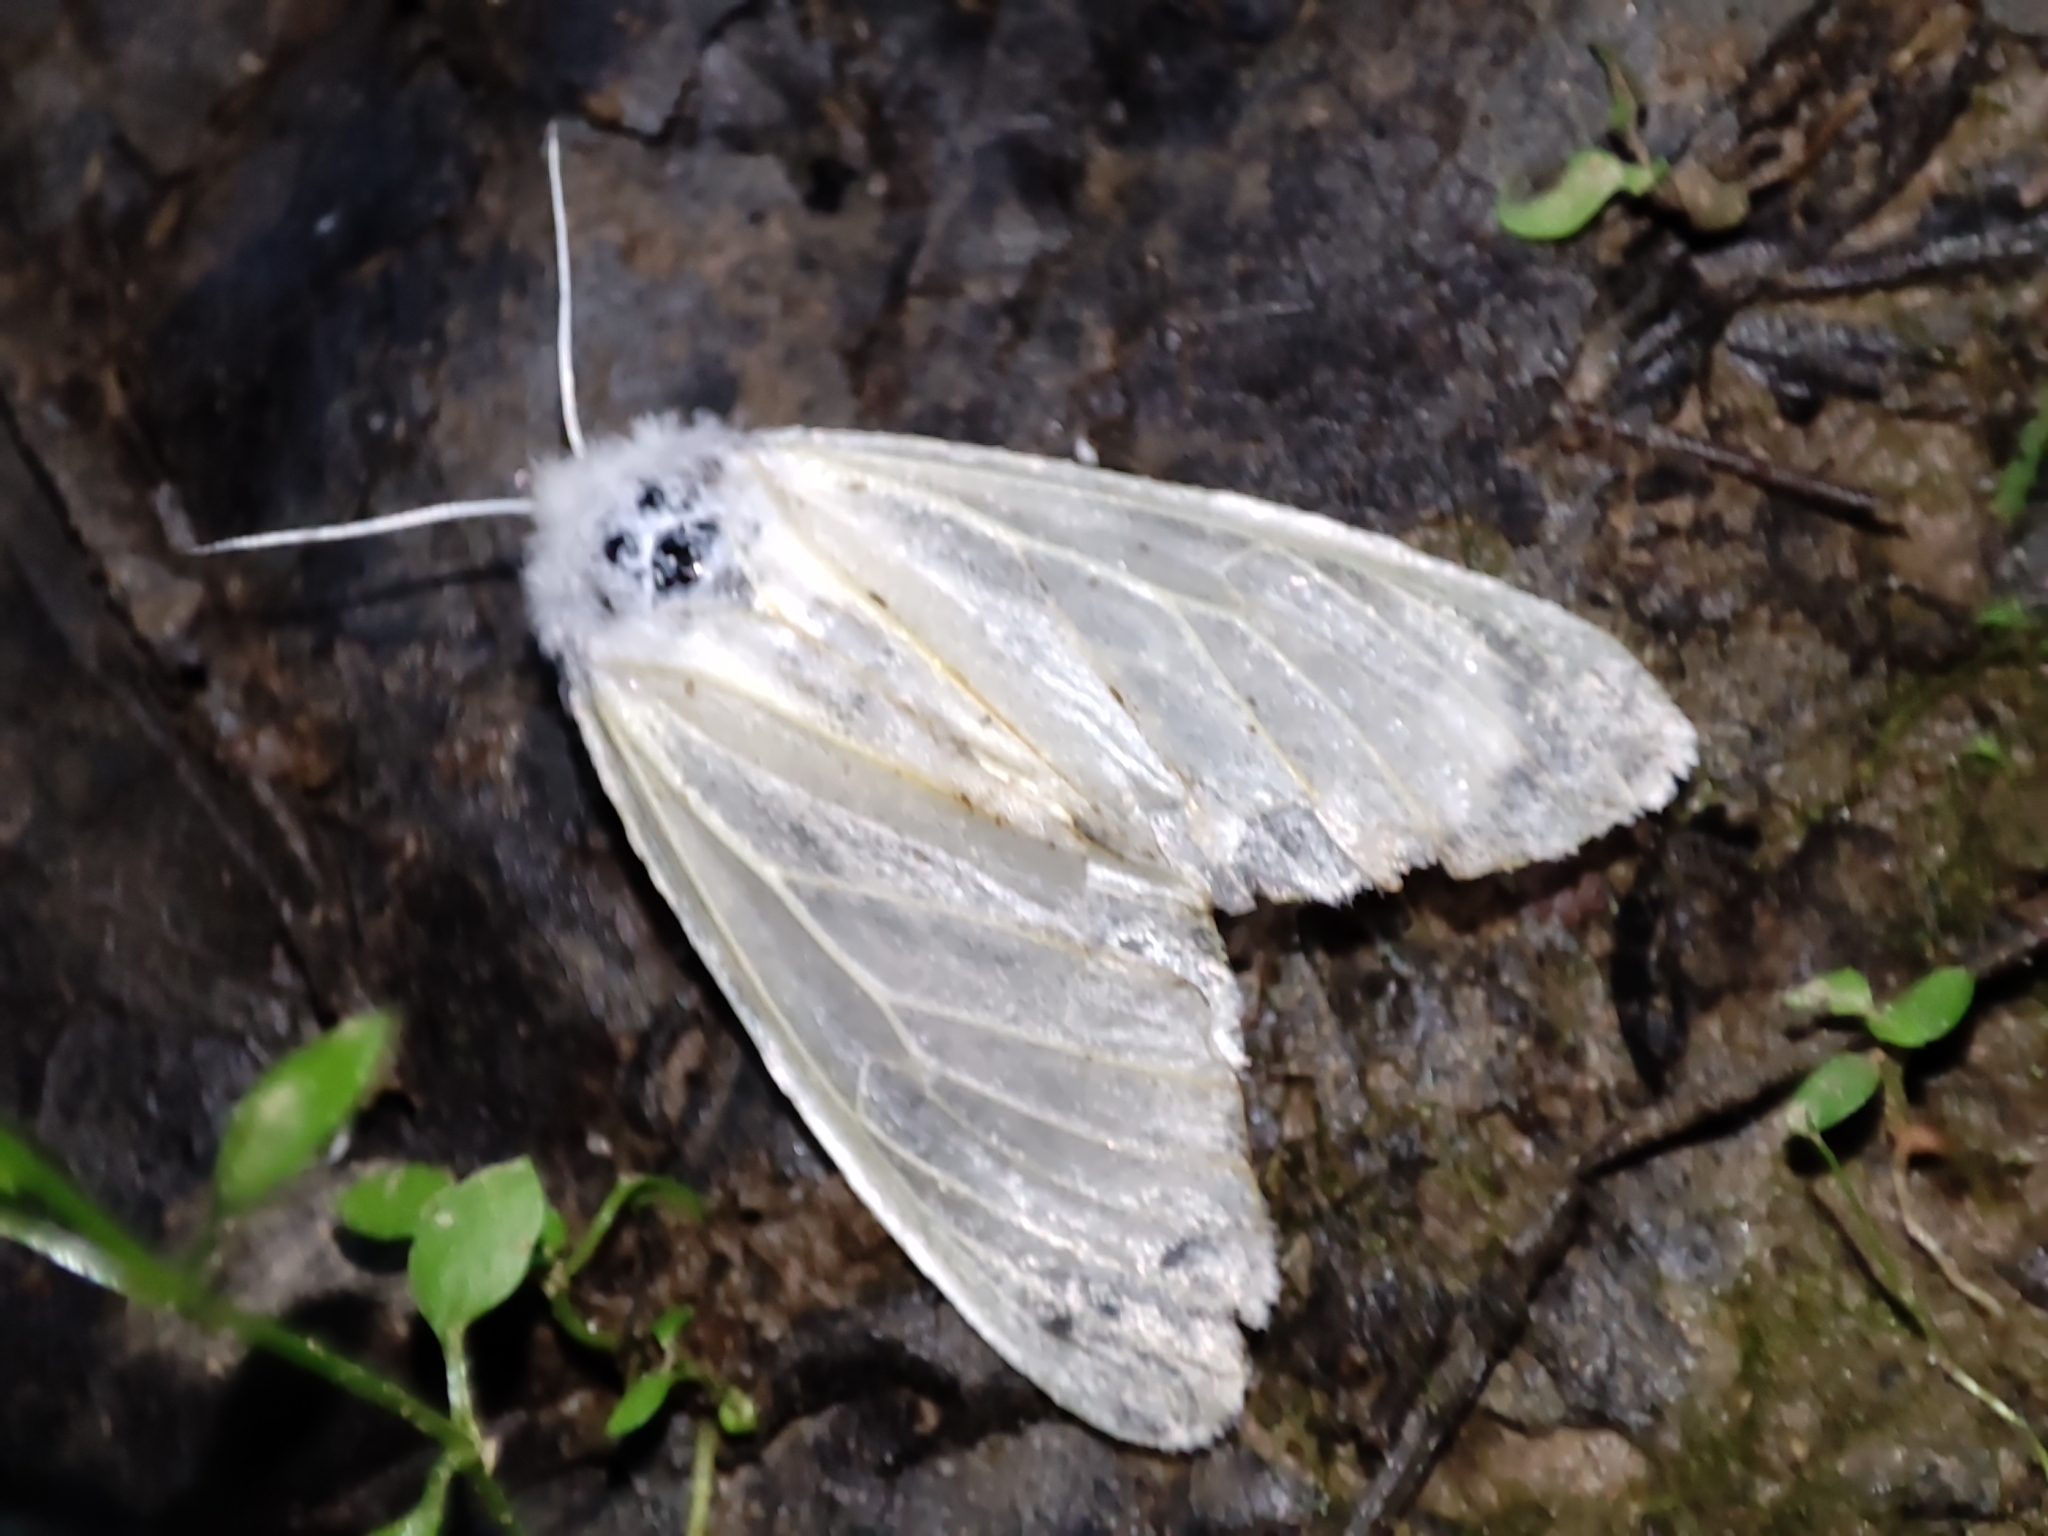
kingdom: Animalia
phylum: Arthropoda
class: Insecta
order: Lepidoptera
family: Erebidae
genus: Leucoma
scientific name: Leucoma salicis
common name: White satin moth
